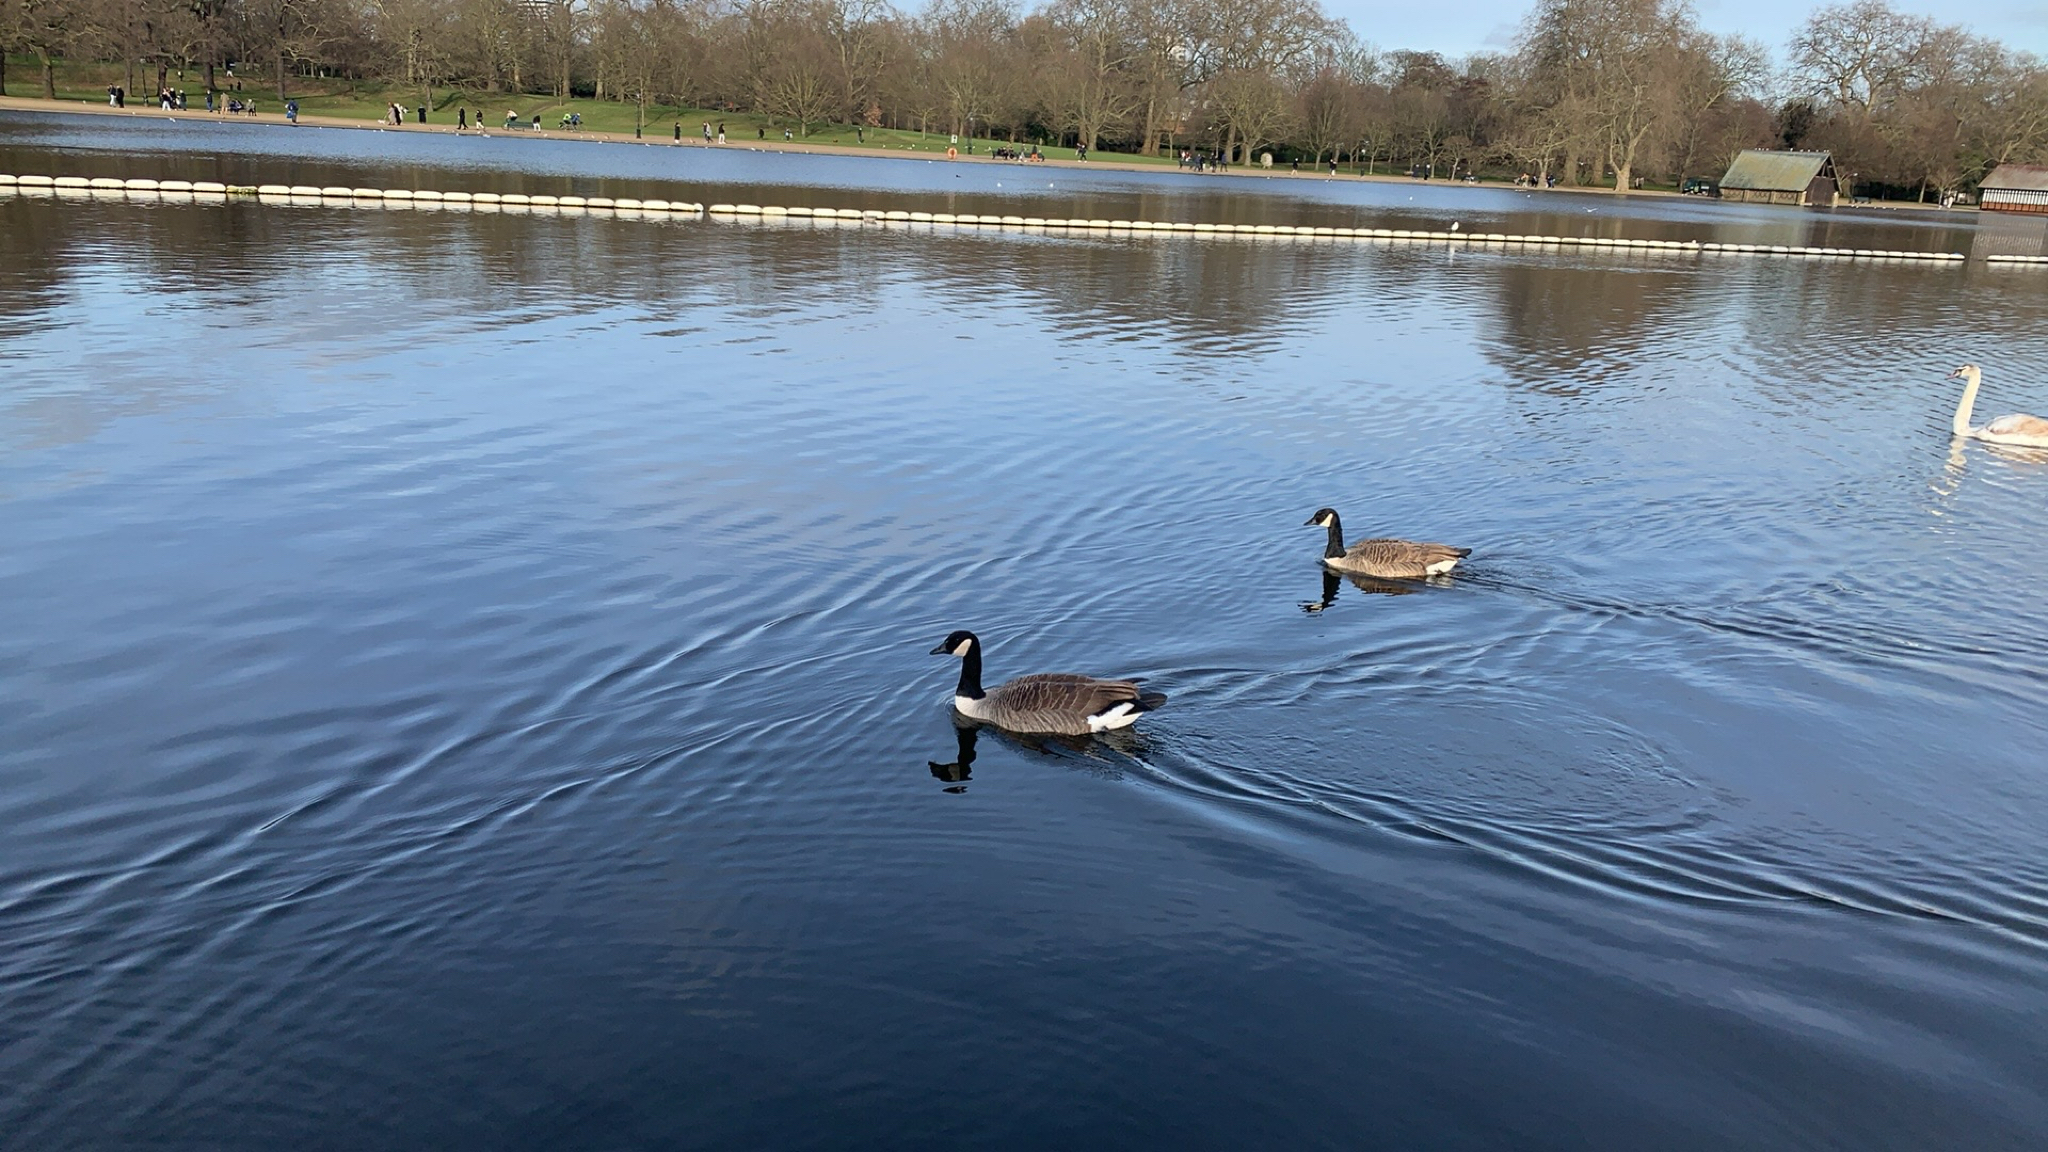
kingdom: Animalia
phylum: Chordata
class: Aves
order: Anseriformes
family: Anatidae
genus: Branta
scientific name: Branta canadensis
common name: Canada goose
